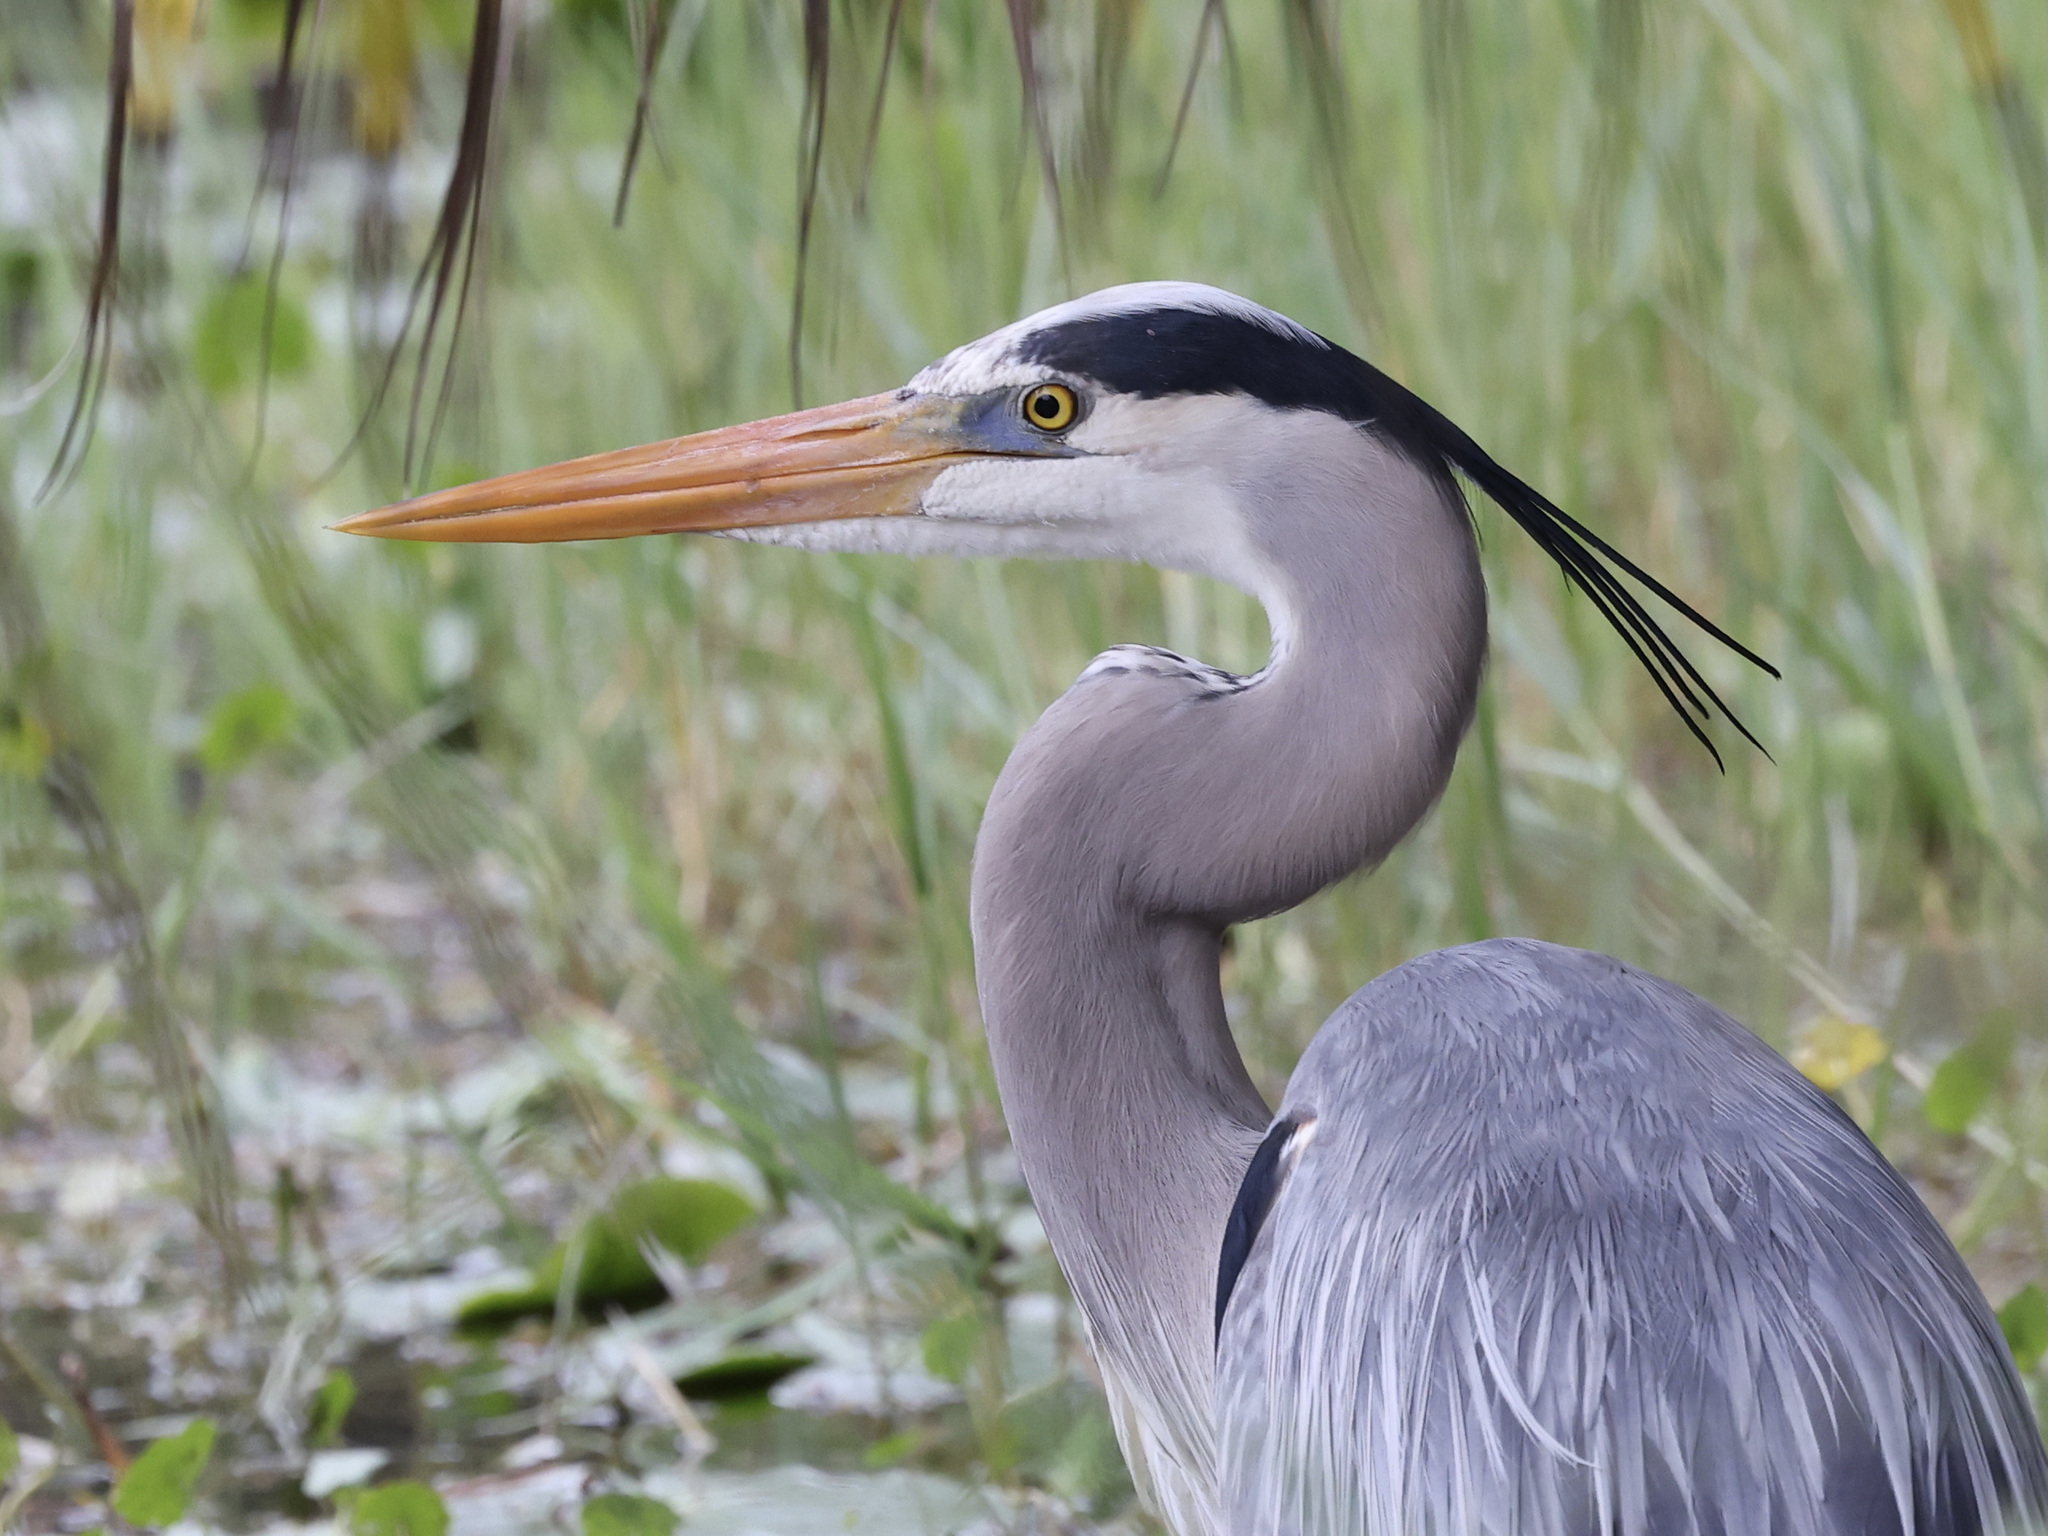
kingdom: Animalia
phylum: Chordata
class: Aves
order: Pelecaniformes
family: Ardeidae
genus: Ardea
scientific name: Ardea herodias
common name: Great blue heron
